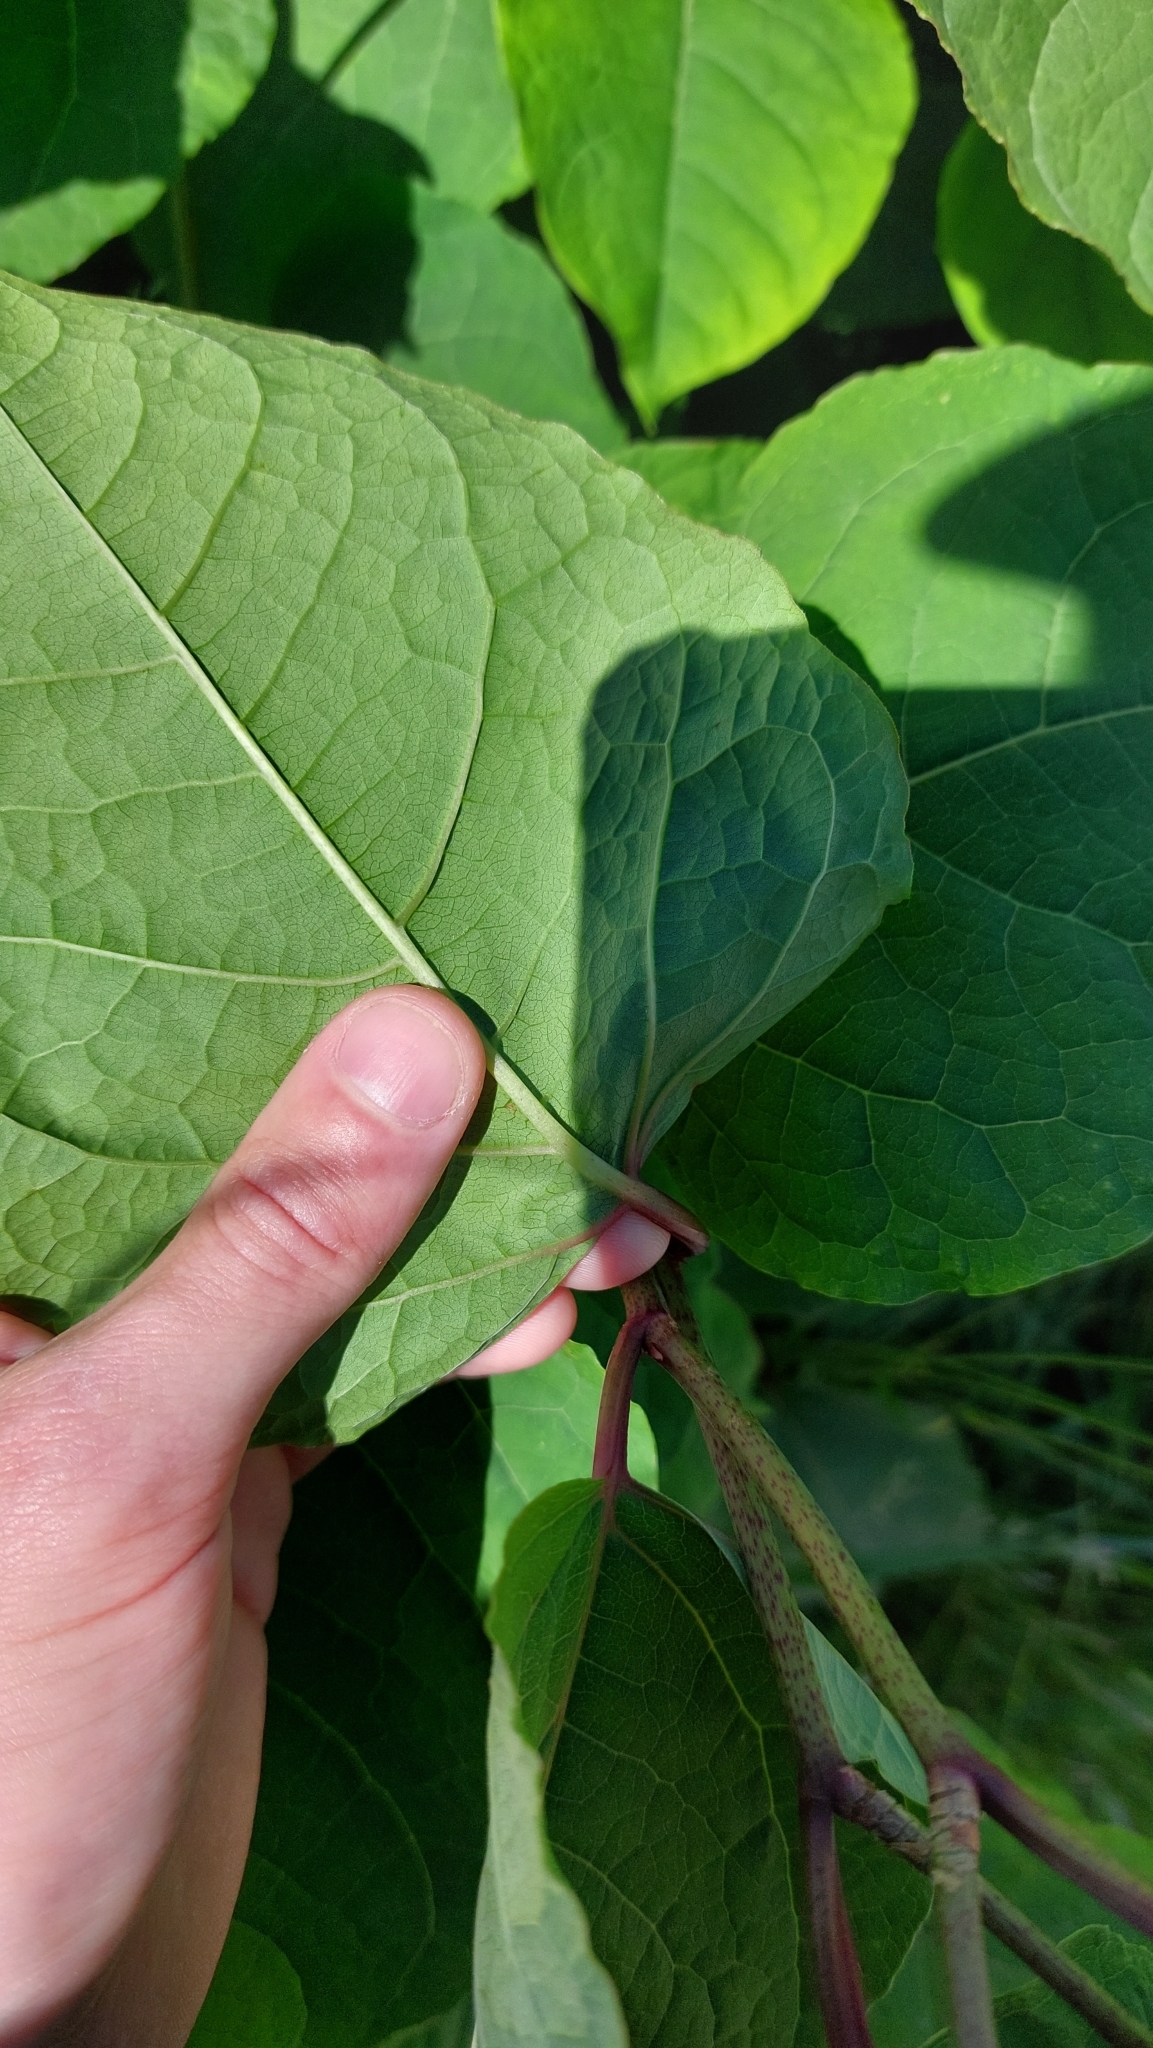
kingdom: Plantae
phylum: Tracheophyta
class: Magnoliopsida
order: Caryophyllales
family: Polygonaceae
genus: Reynoutria
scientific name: Reynoutria bohemica
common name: Bohemian knotweed
